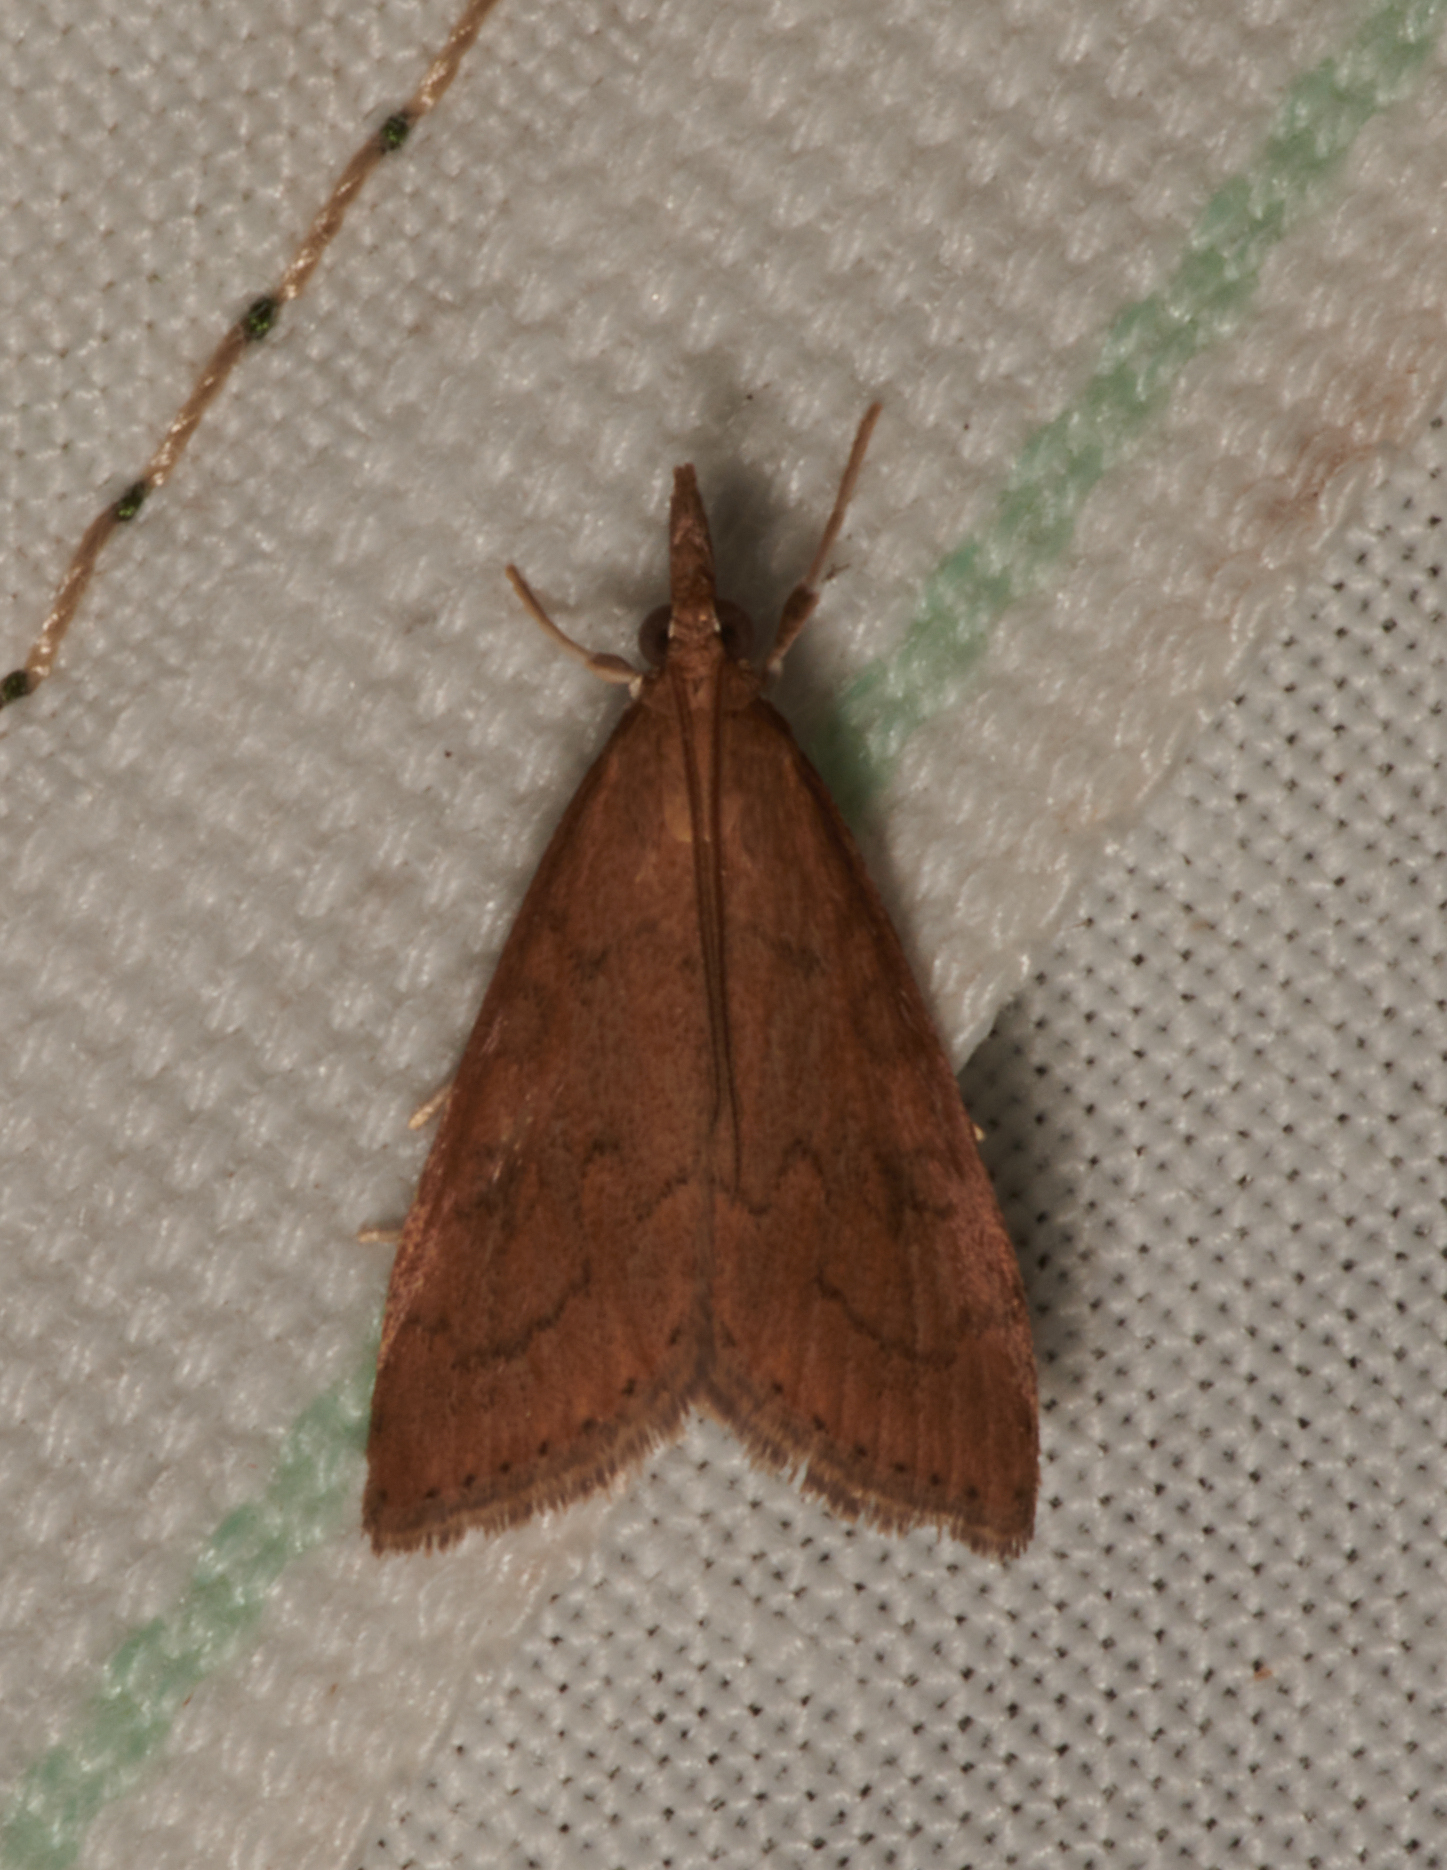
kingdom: Animalia
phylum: Arthropoda
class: Insecta
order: Lepidoptera
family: Crambidae
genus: Udea
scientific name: Udea rubigalis
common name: Celery leaftier moth
